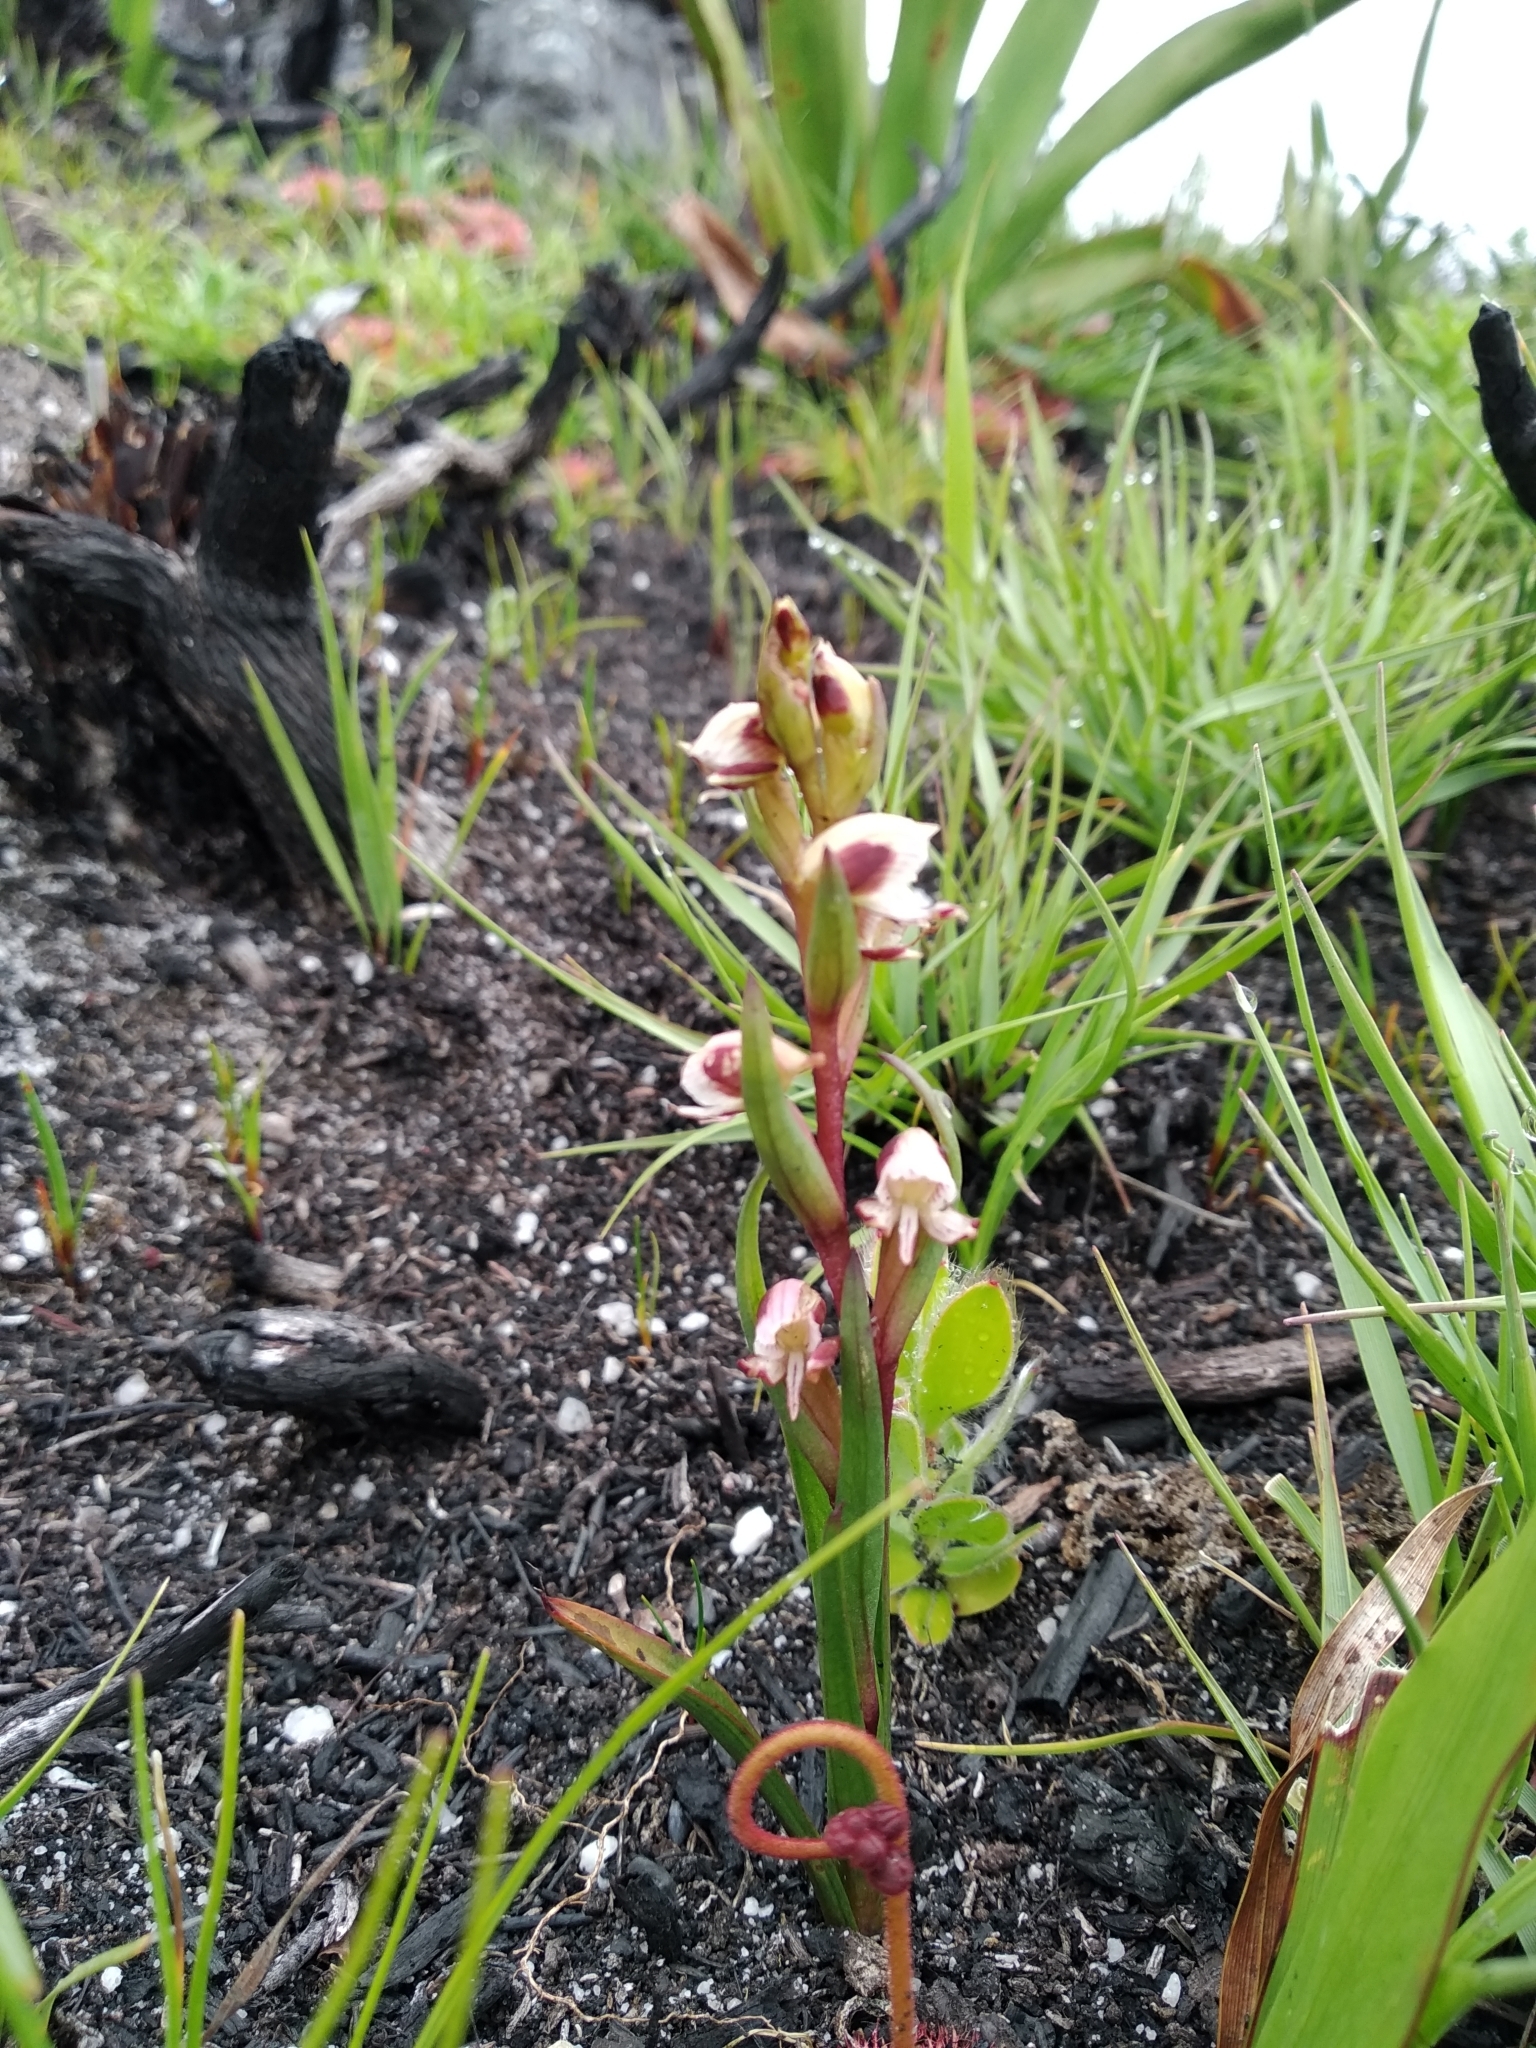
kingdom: Plantae
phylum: Tracheophyta
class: Liliopsida
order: Asparagales
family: Orchidaceae
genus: Disa
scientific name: Disa ocellata
